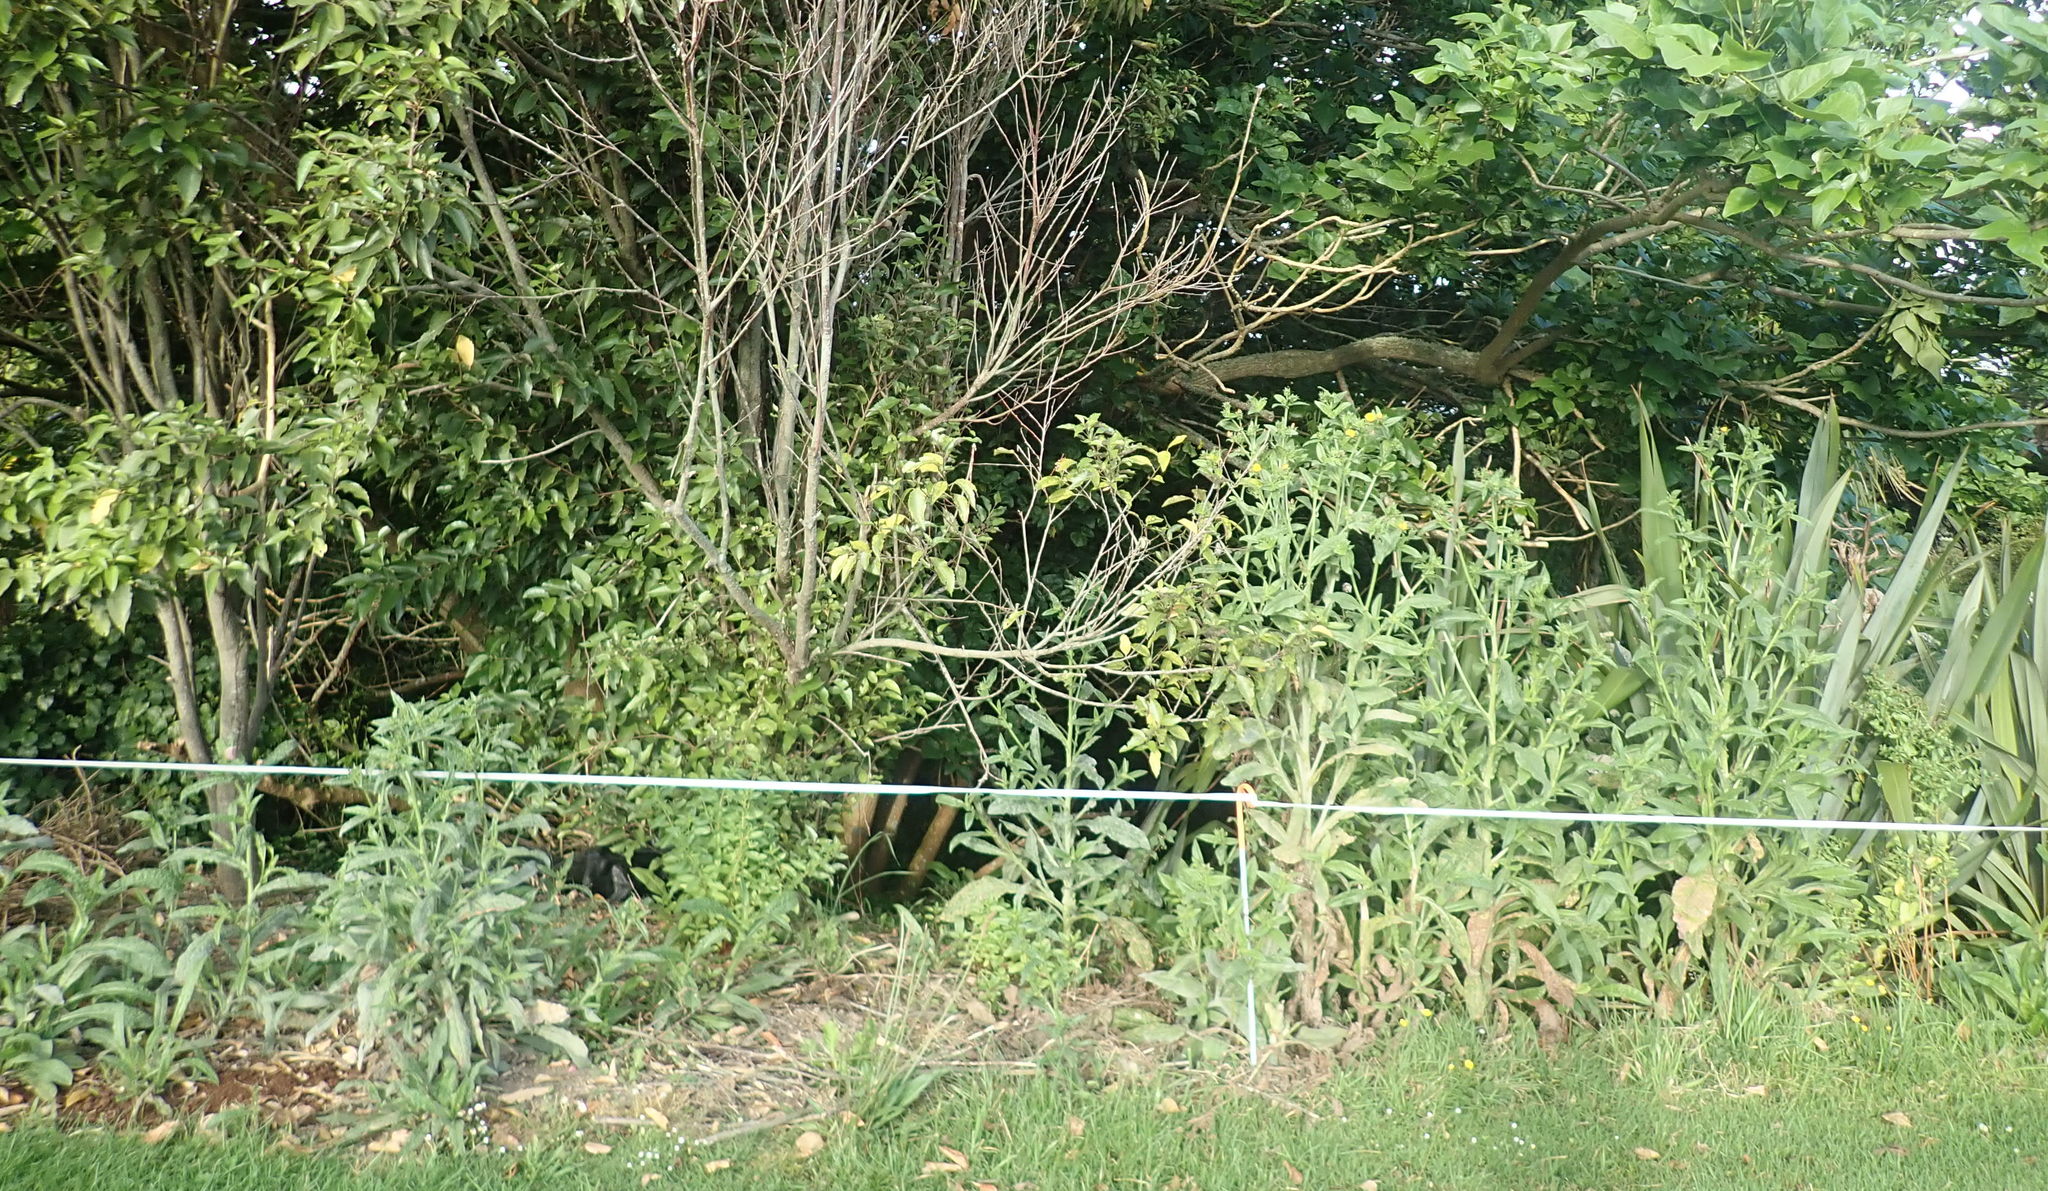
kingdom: Plantae
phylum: Tracheophyta
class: Magnoliopsida
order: Malvales
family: Malvaceae
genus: Hoheria
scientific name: Hoheria populnea
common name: Lacebark
